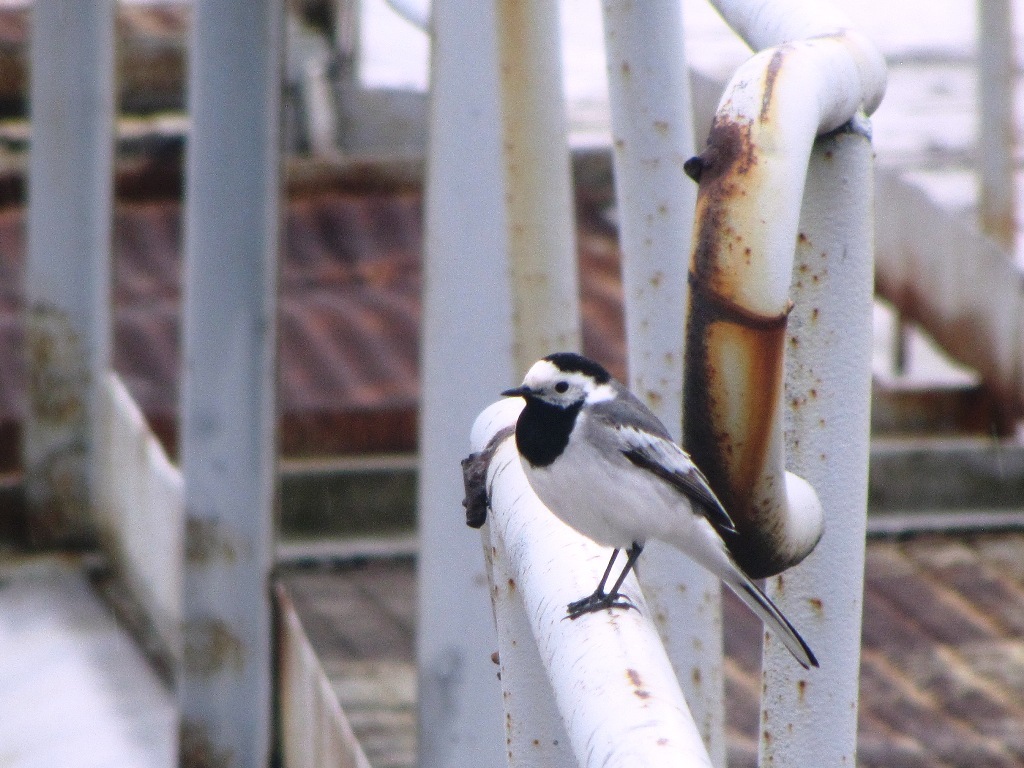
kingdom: Animalia
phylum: Chordata
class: Aves
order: Passeriformes
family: Motacillidae
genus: Motacilla
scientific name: Motacilla alba
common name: White wagtail
